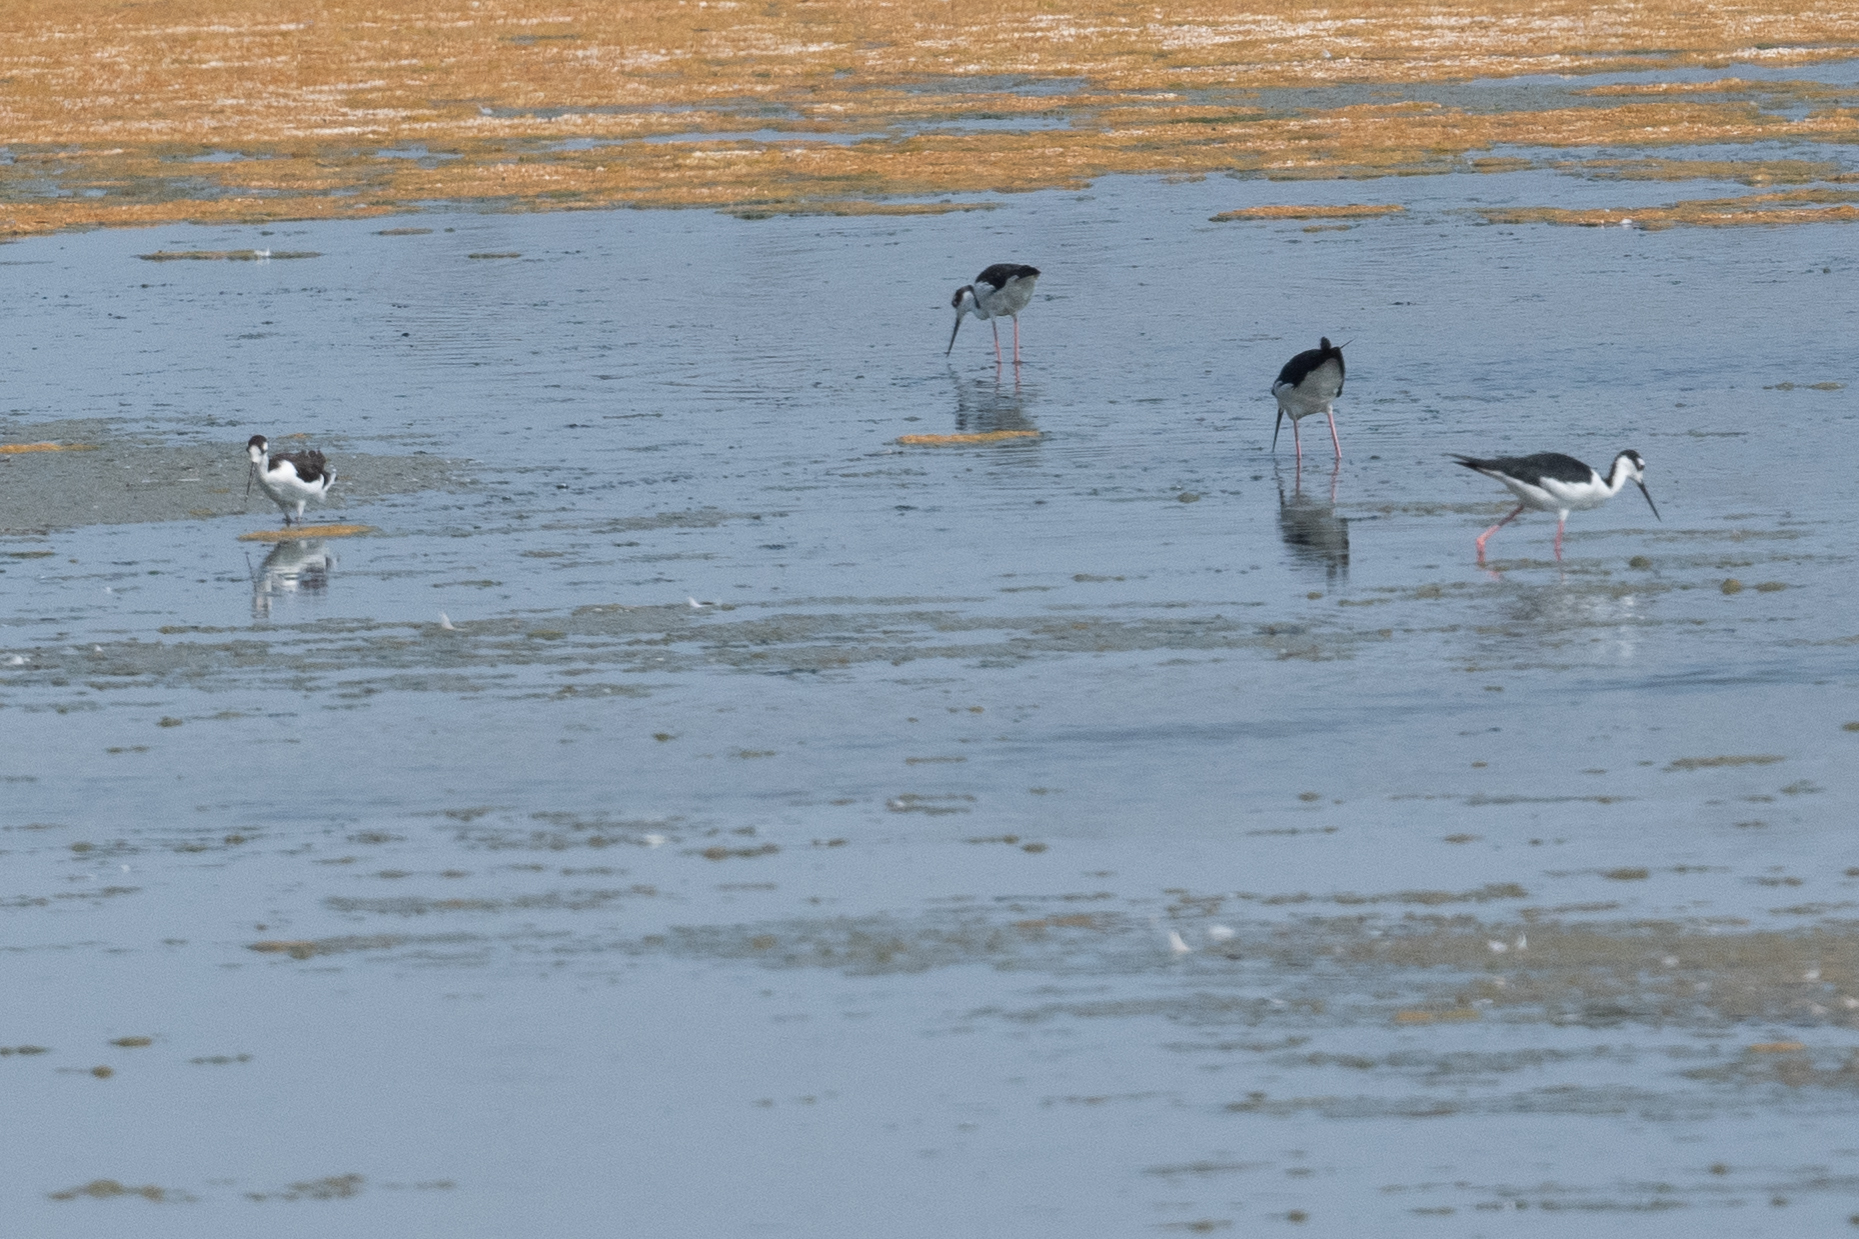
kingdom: Animalia
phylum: Chordata
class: Aves
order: Charadriiformes
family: Recurvirostridae
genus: Himantopus
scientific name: Himantopus mexicanus
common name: Black-necked stilt
